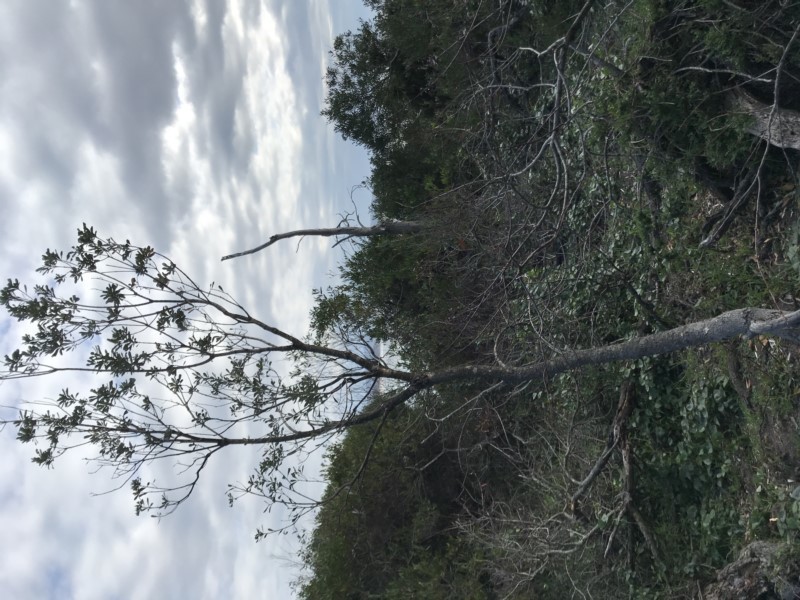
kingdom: Plantae
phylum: Tracheophyta
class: Magnoliopsida
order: Proteales
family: Proteaceae
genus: Banksia
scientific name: Banksia integrifolia
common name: White-honeysuckle
